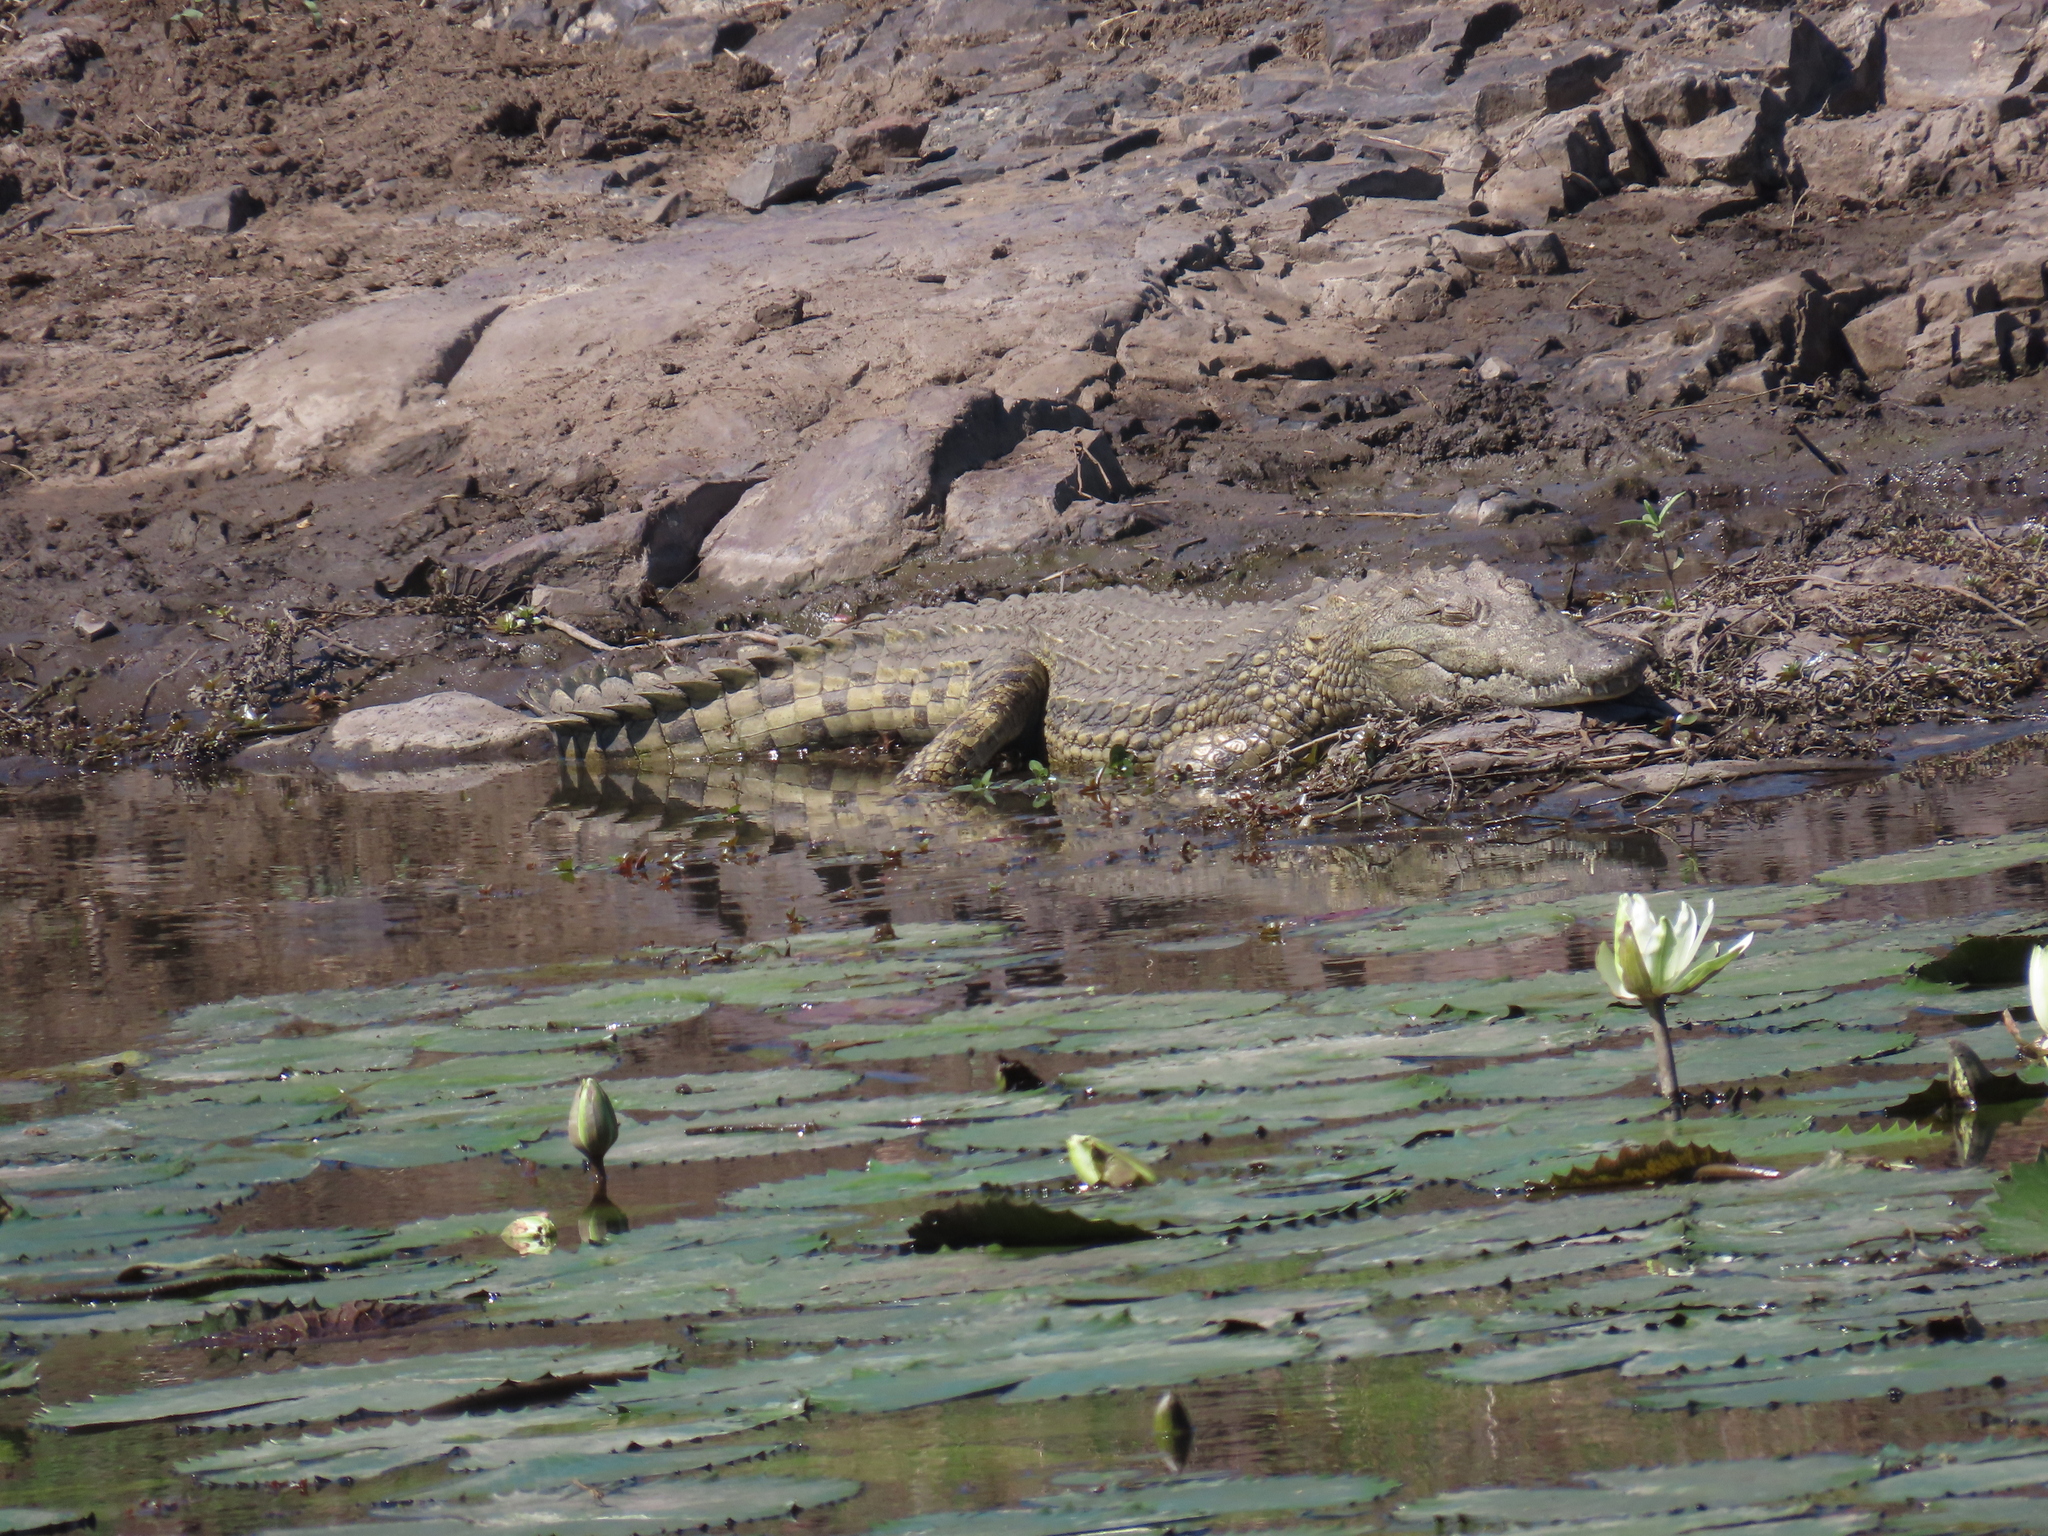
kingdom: Animalia
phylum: Chordata
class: Crocodylia
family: Crocodylidae
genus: Crocodylus
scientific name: Crocodylus niloticus
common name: Nile crocodile
